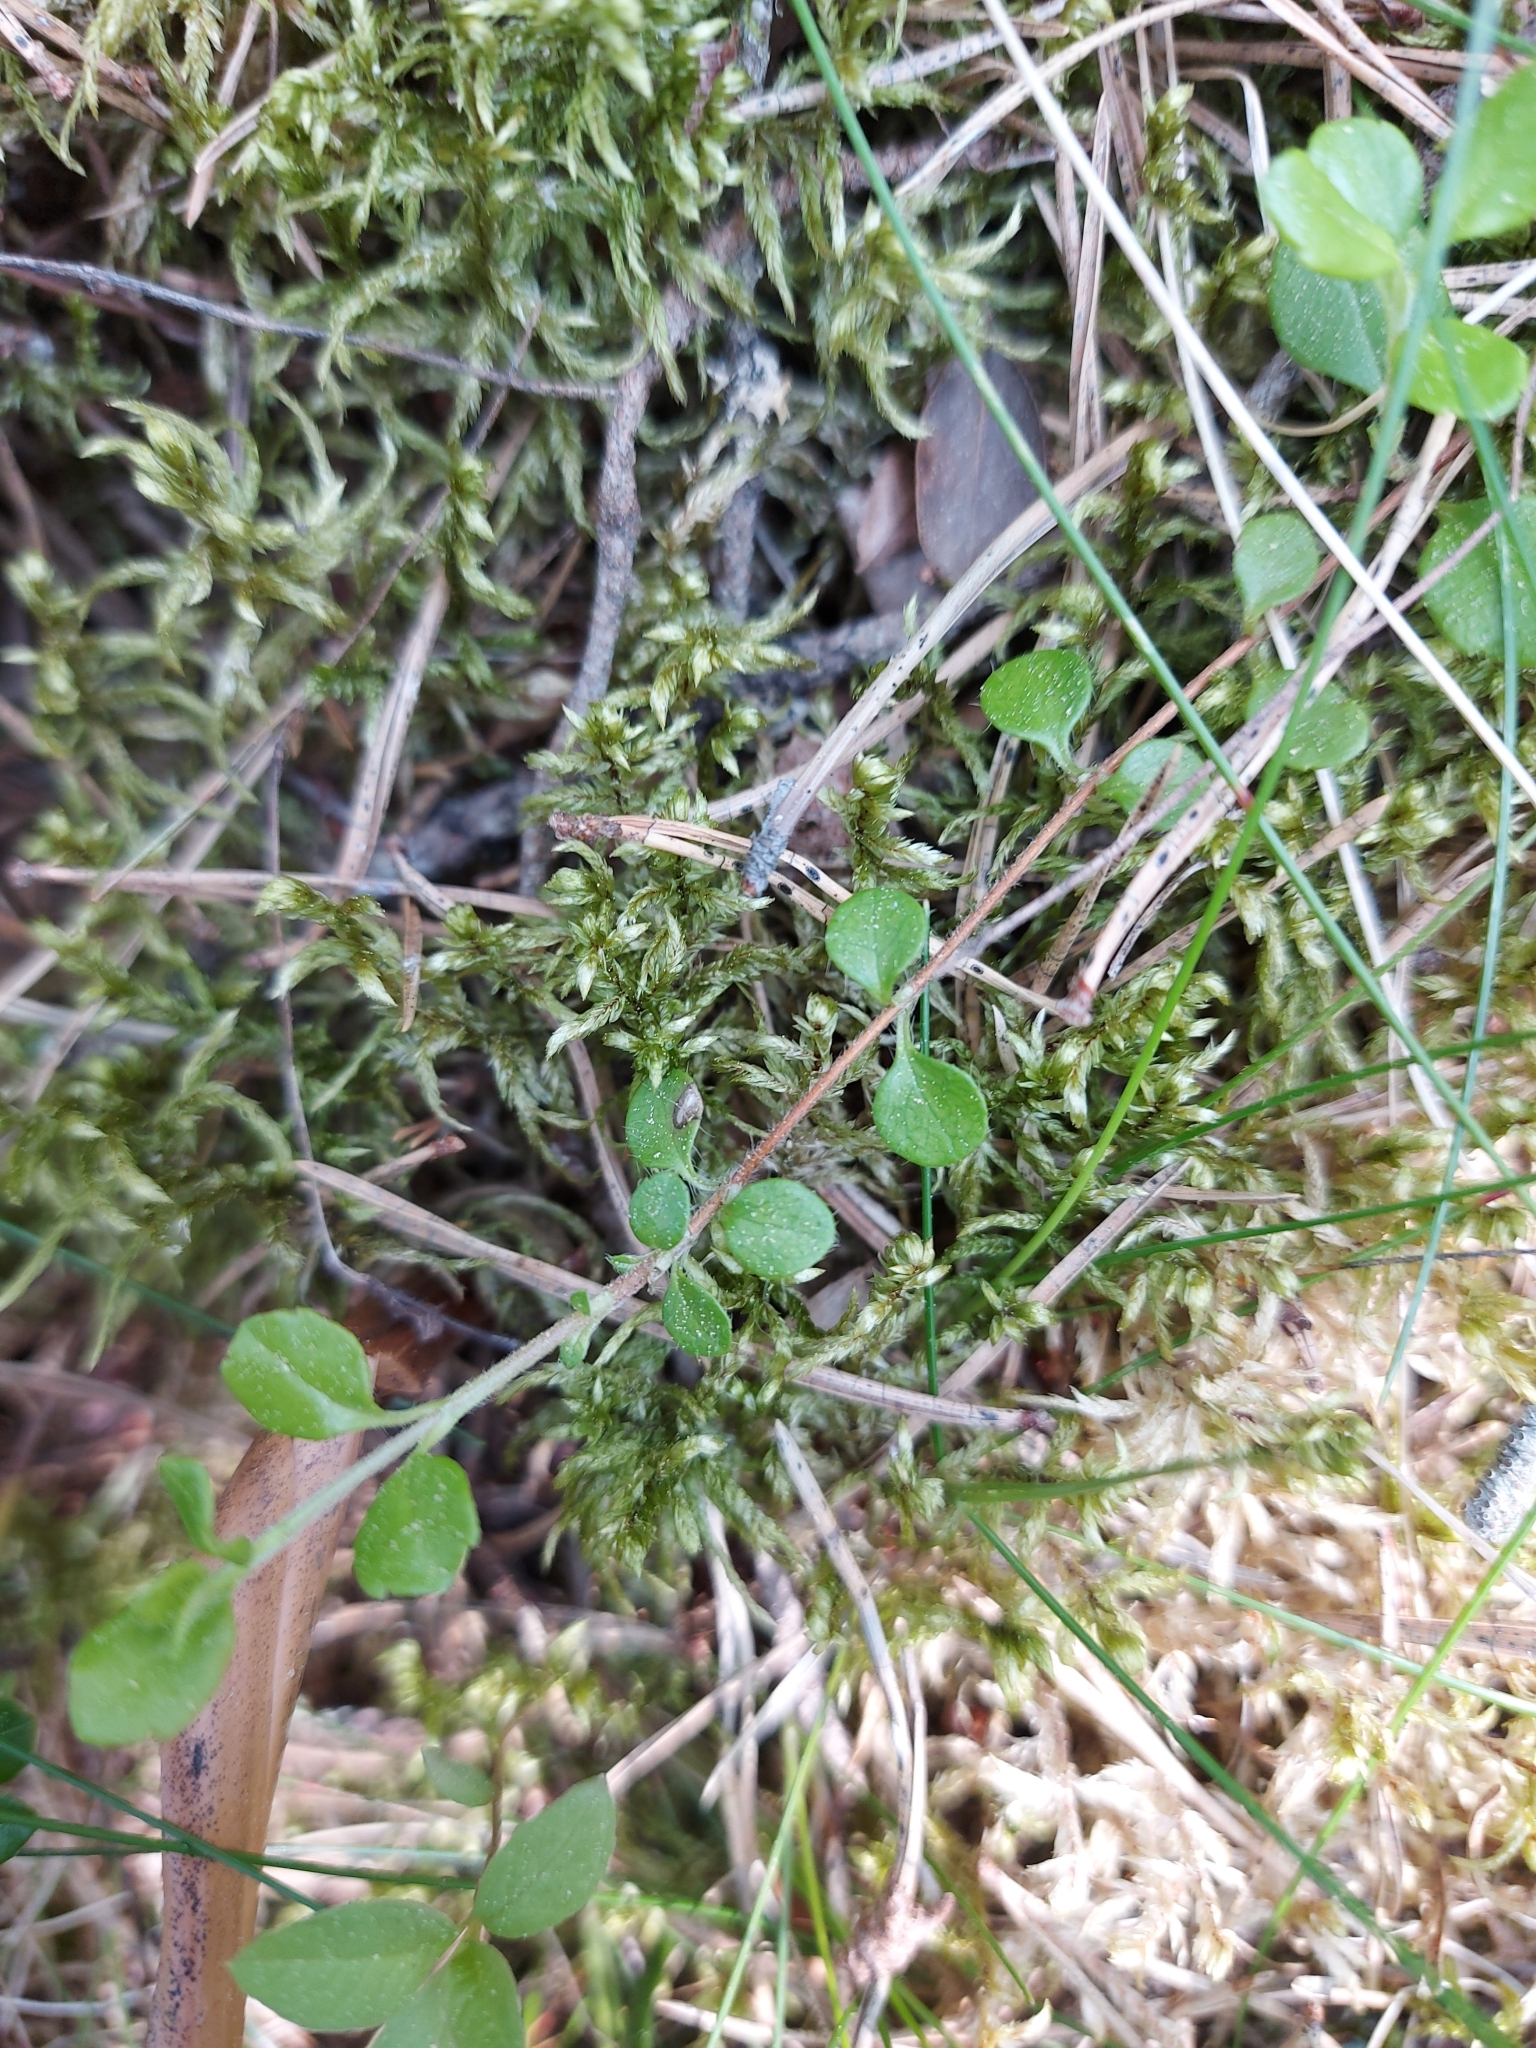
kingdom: Plantae
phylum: Tracheophyta
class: Magnoliopsida
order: Dipsacales
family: Caprifoliaceae
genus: Linnaea
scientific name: Linnaea borealis
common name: Twinflower
